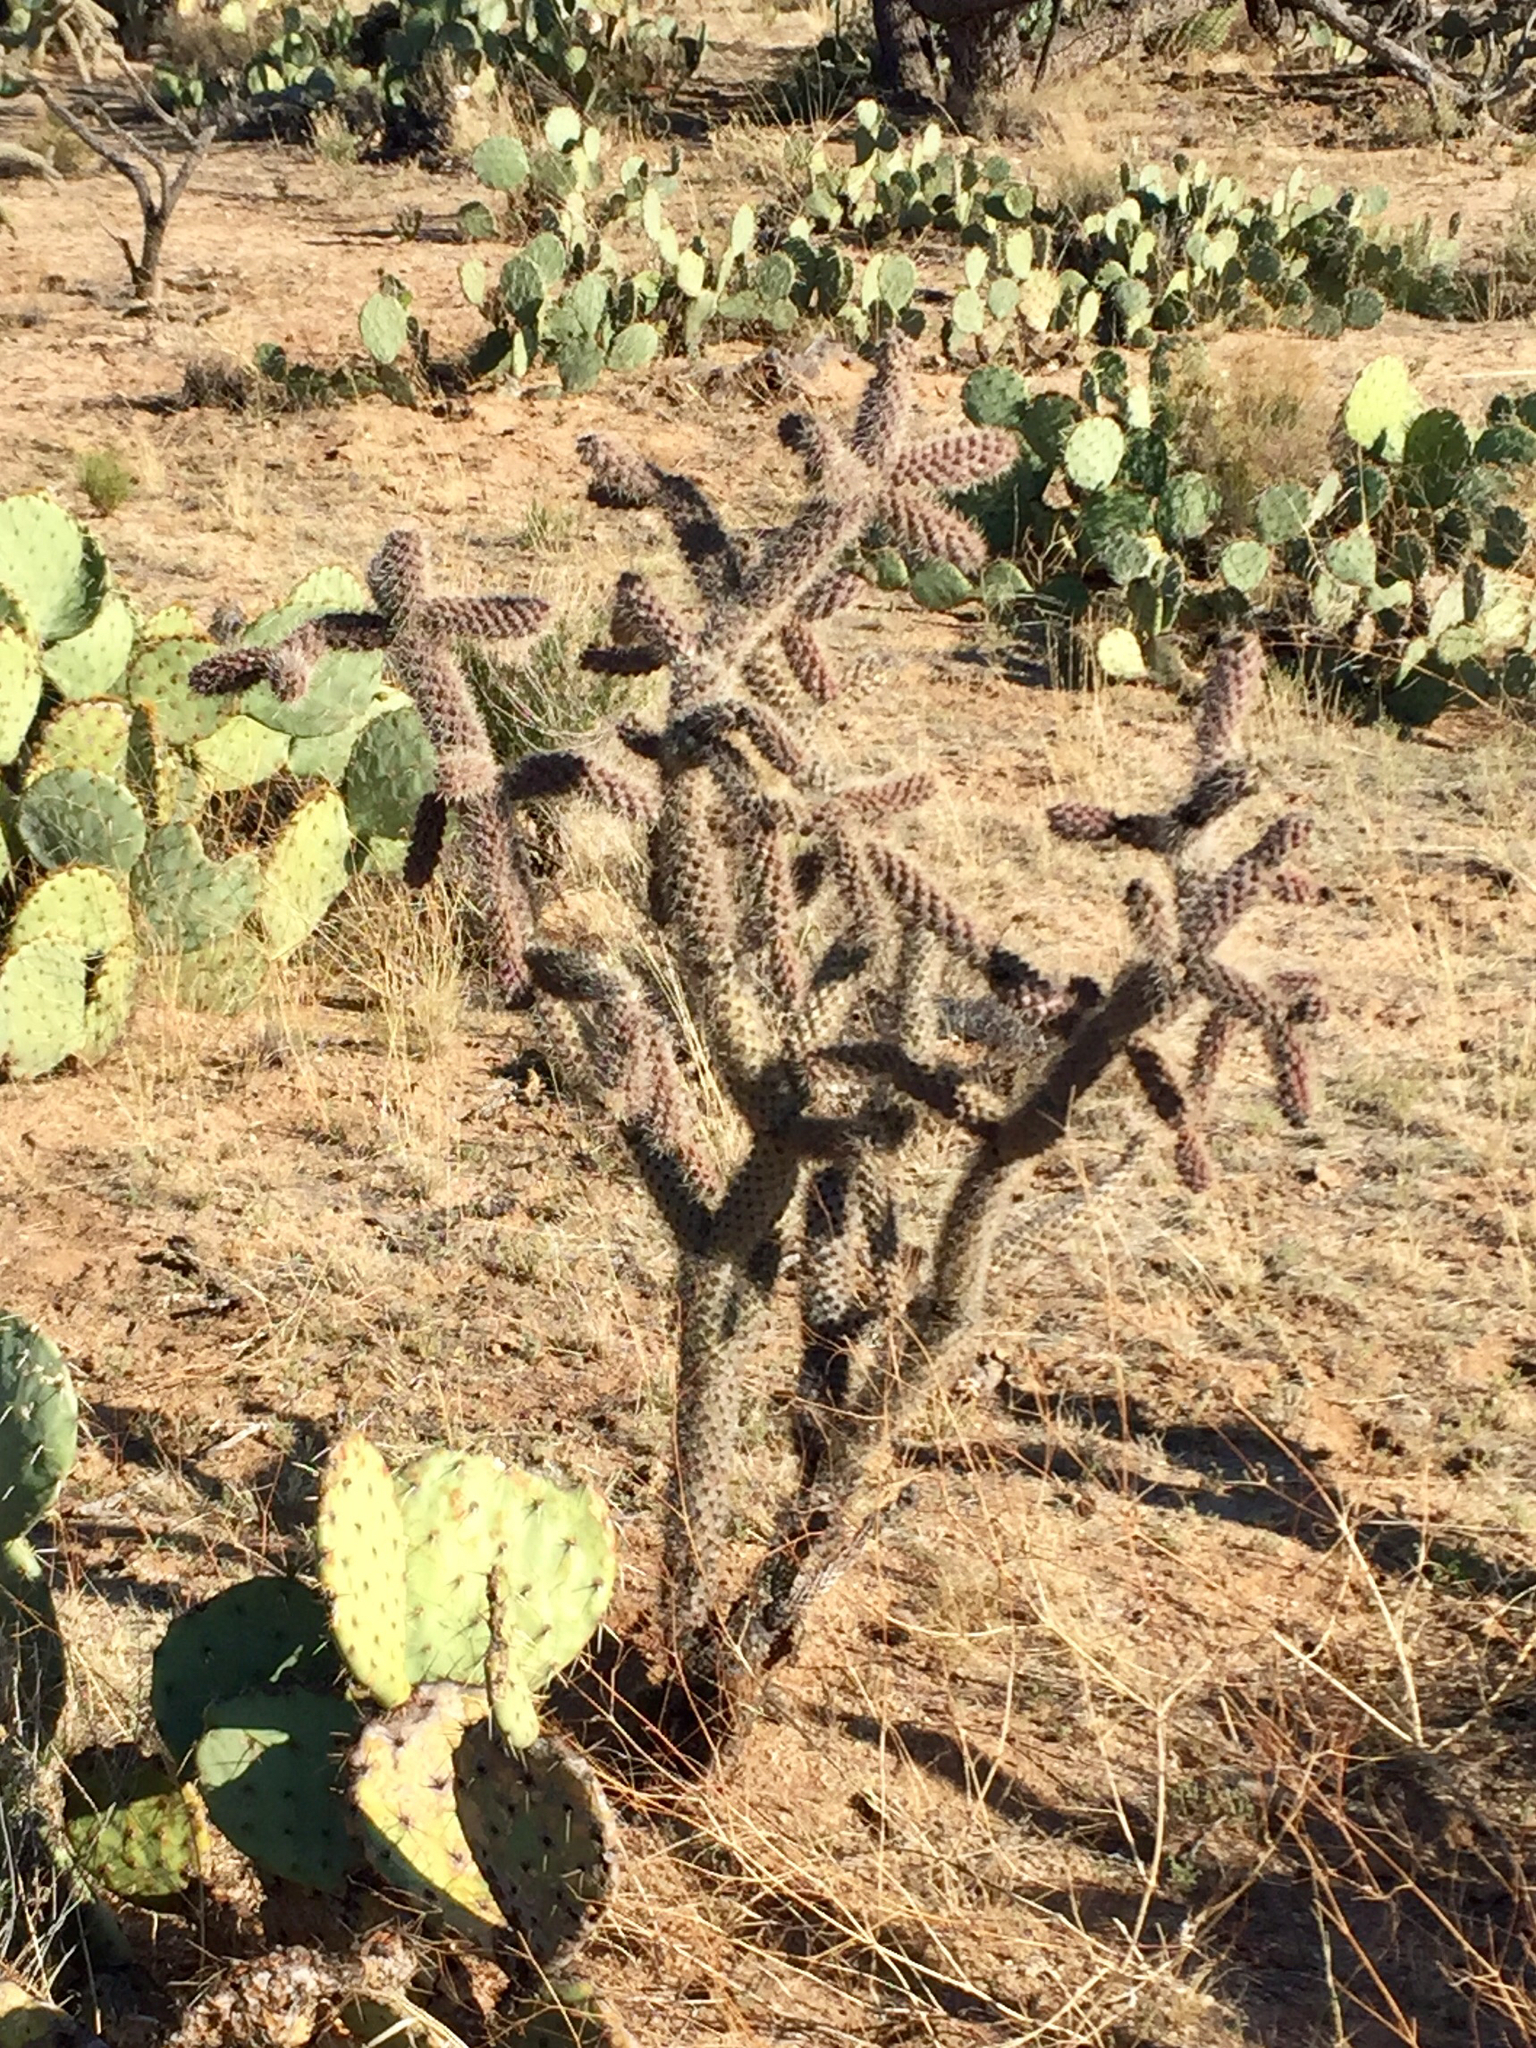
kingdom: Plantae
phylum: Tracheophyta
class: Magnoliopsida
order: Caryophyllales
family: Cactaceae
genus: Cylindropuntia
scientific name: Cylindropuntia imbricata
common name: Candelabrum cactus
